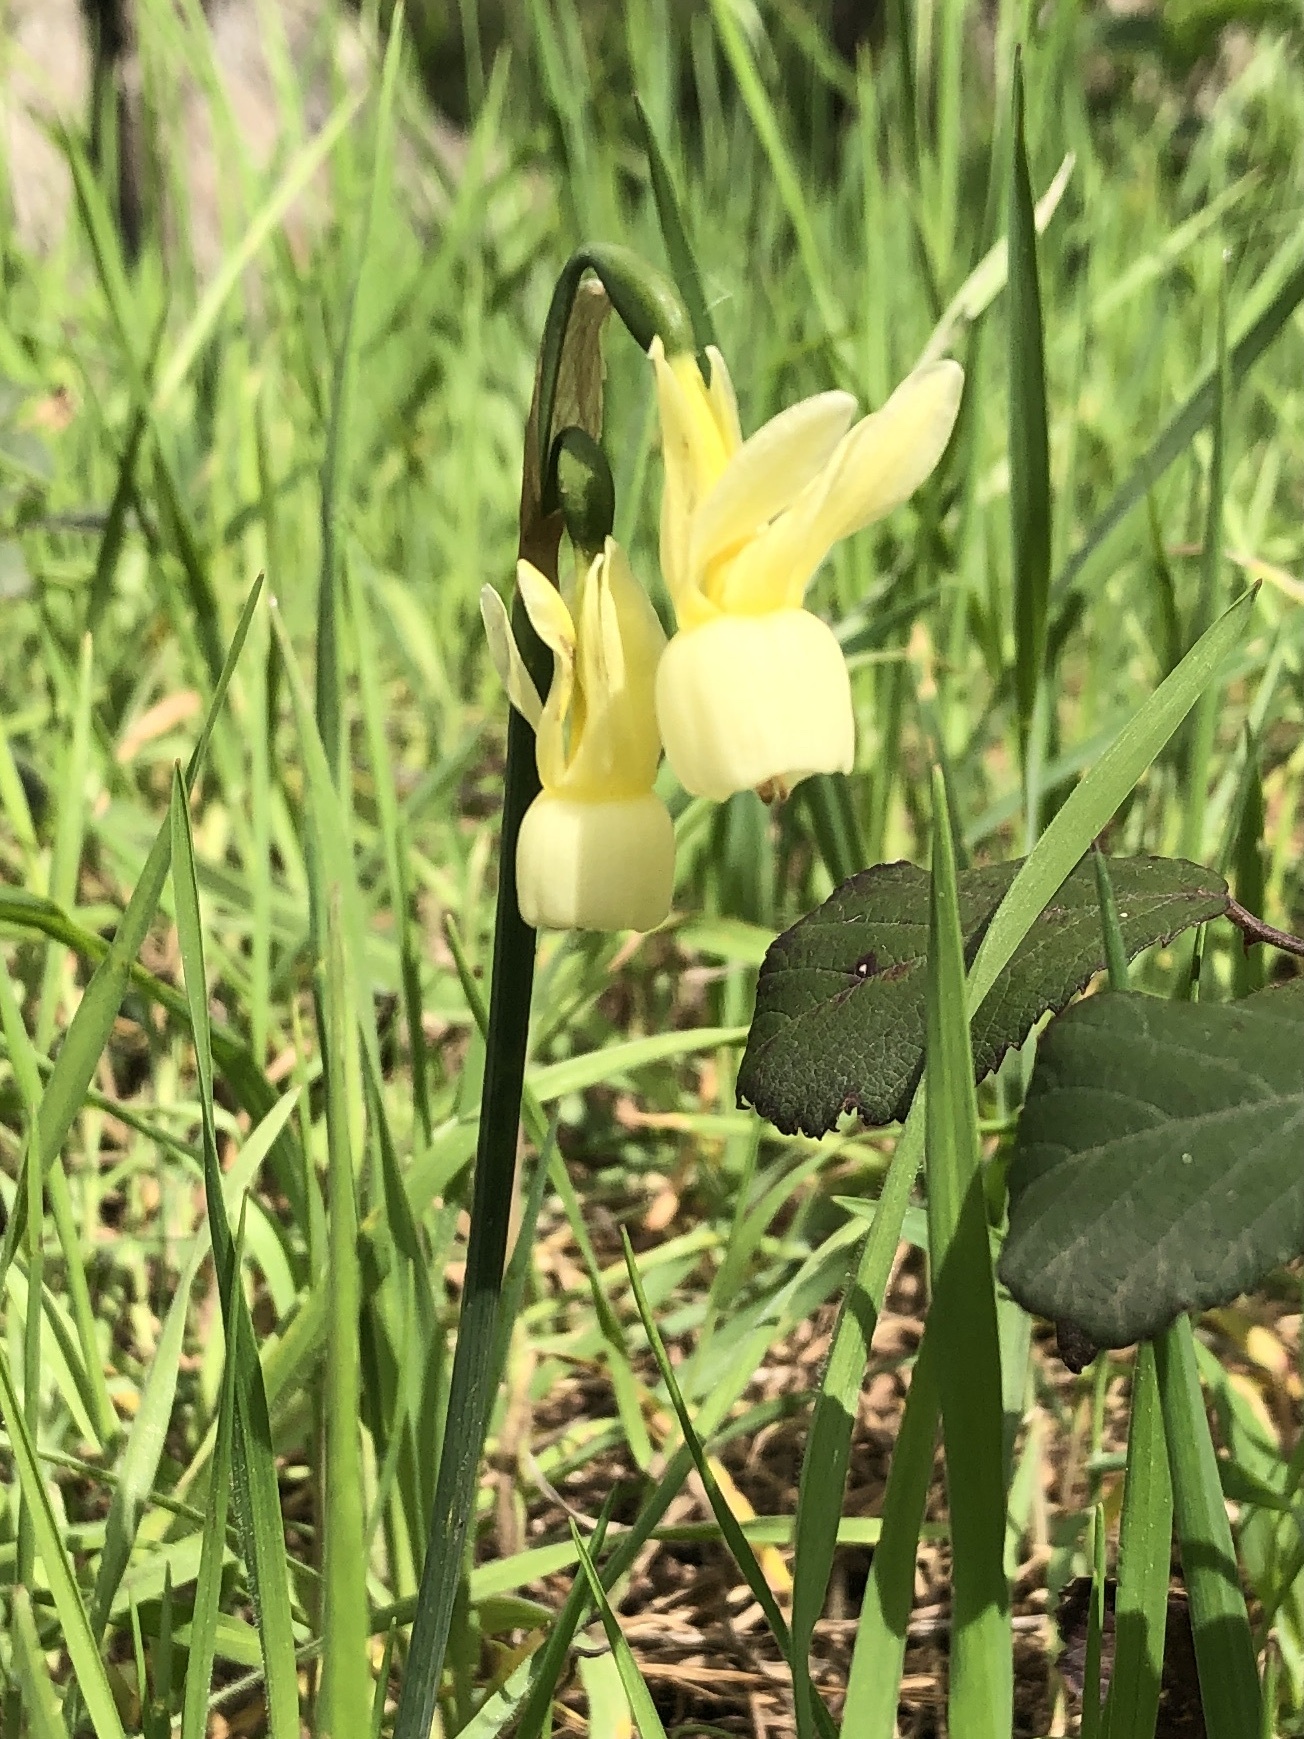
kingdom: Plantae
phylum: Tracheophyta
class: Liliopsida
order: Asparagales
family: Amaryllidaceae
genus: Narcissus
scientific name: Narcissus triandrus
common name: Angel's-tears
